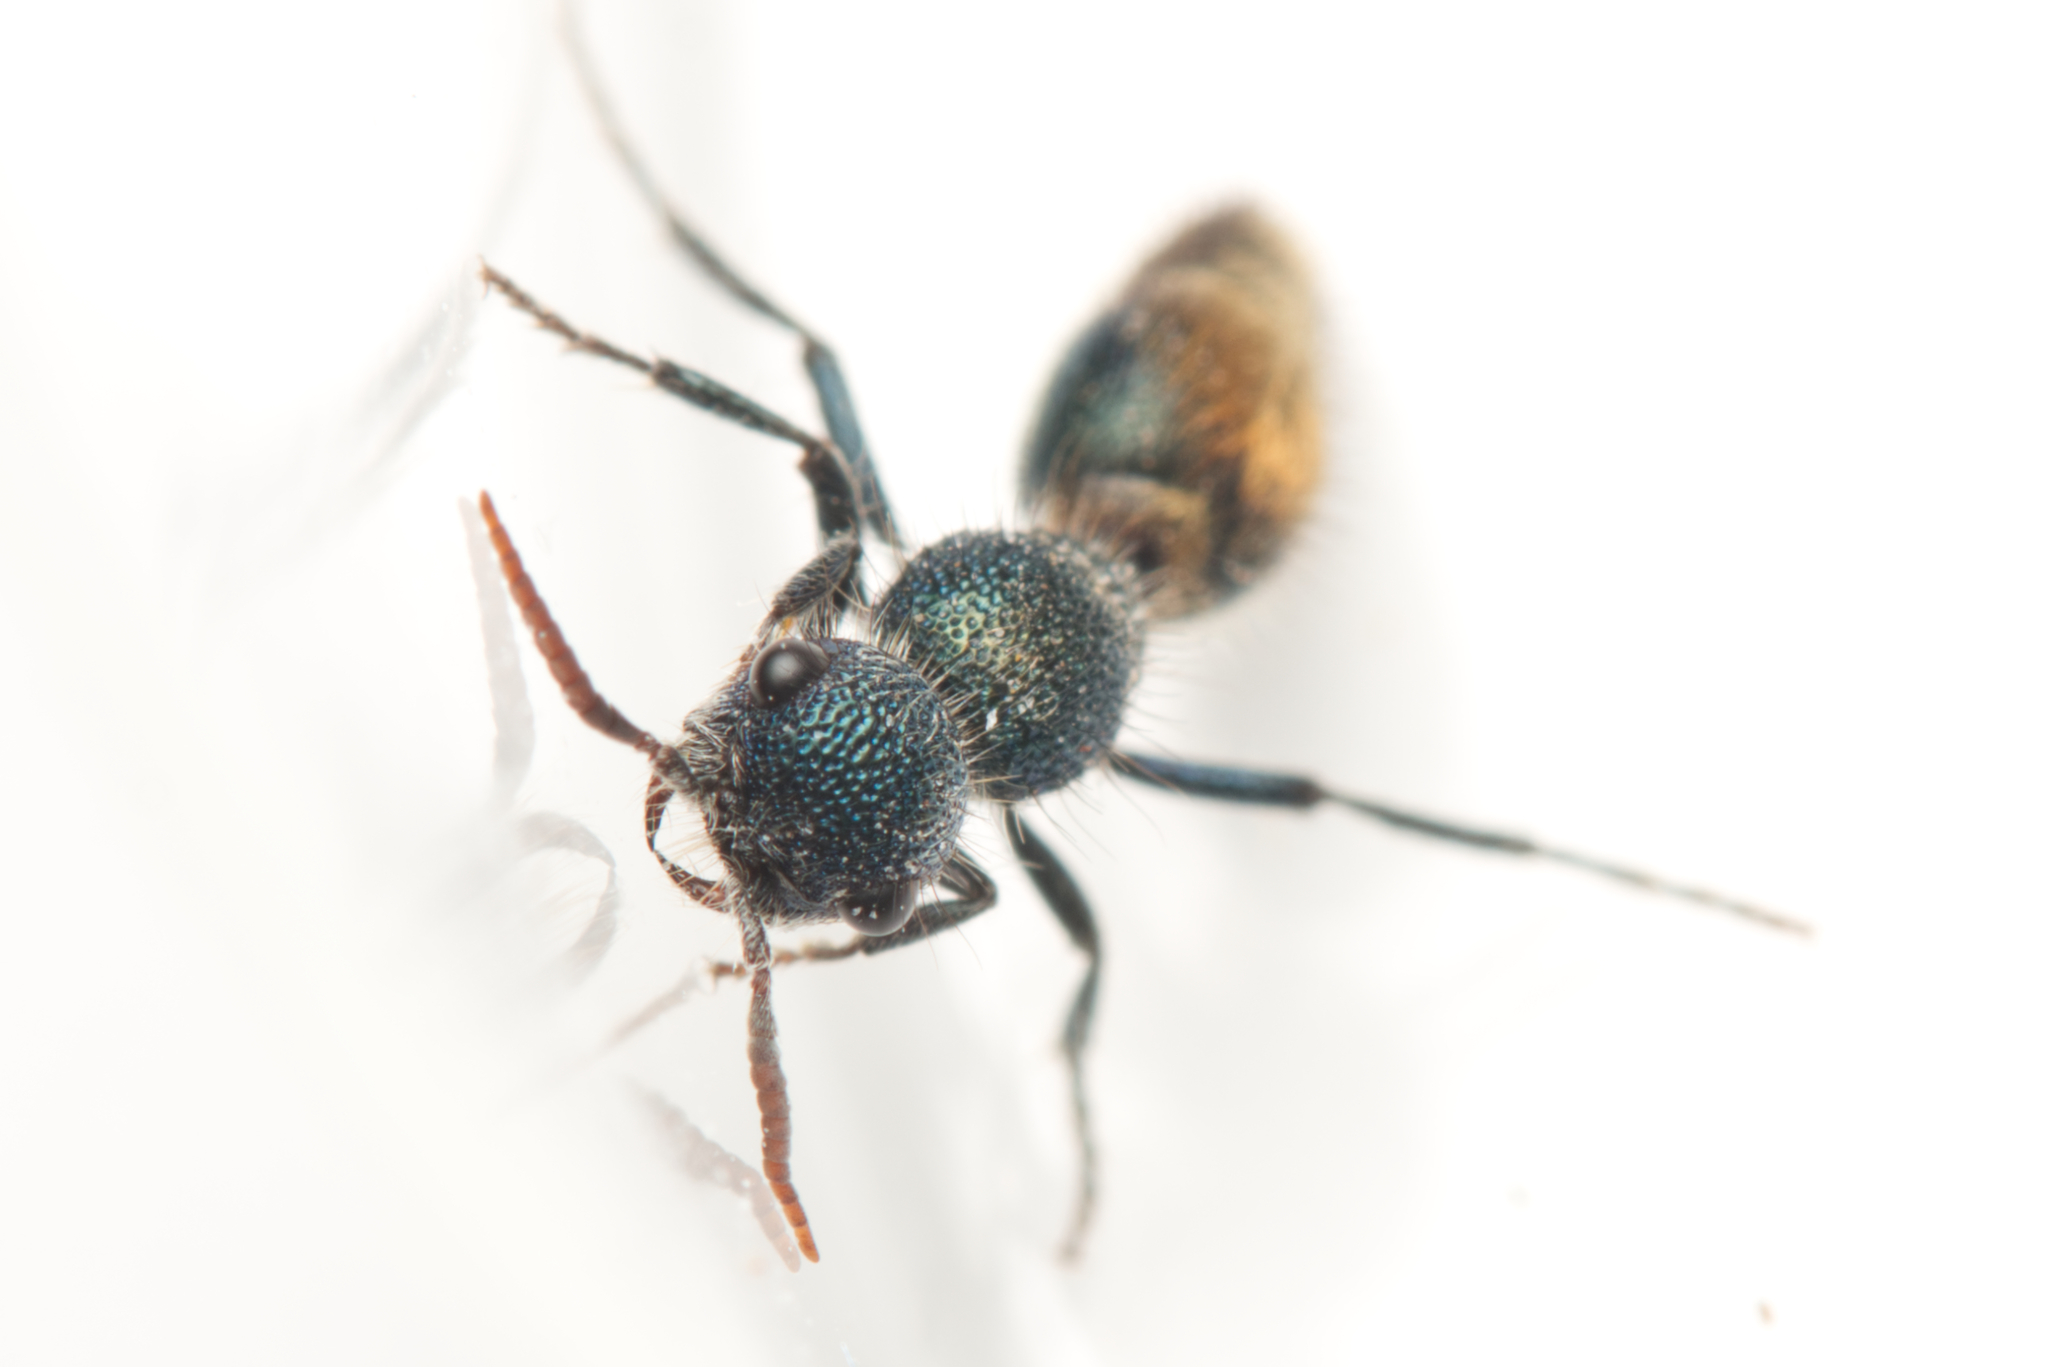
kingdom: Animalia
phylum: Arthropoda
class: Insecta
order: Hymenoptera
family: Mutillidae
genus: Ephutomorpha
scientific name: Ephutomorpha
